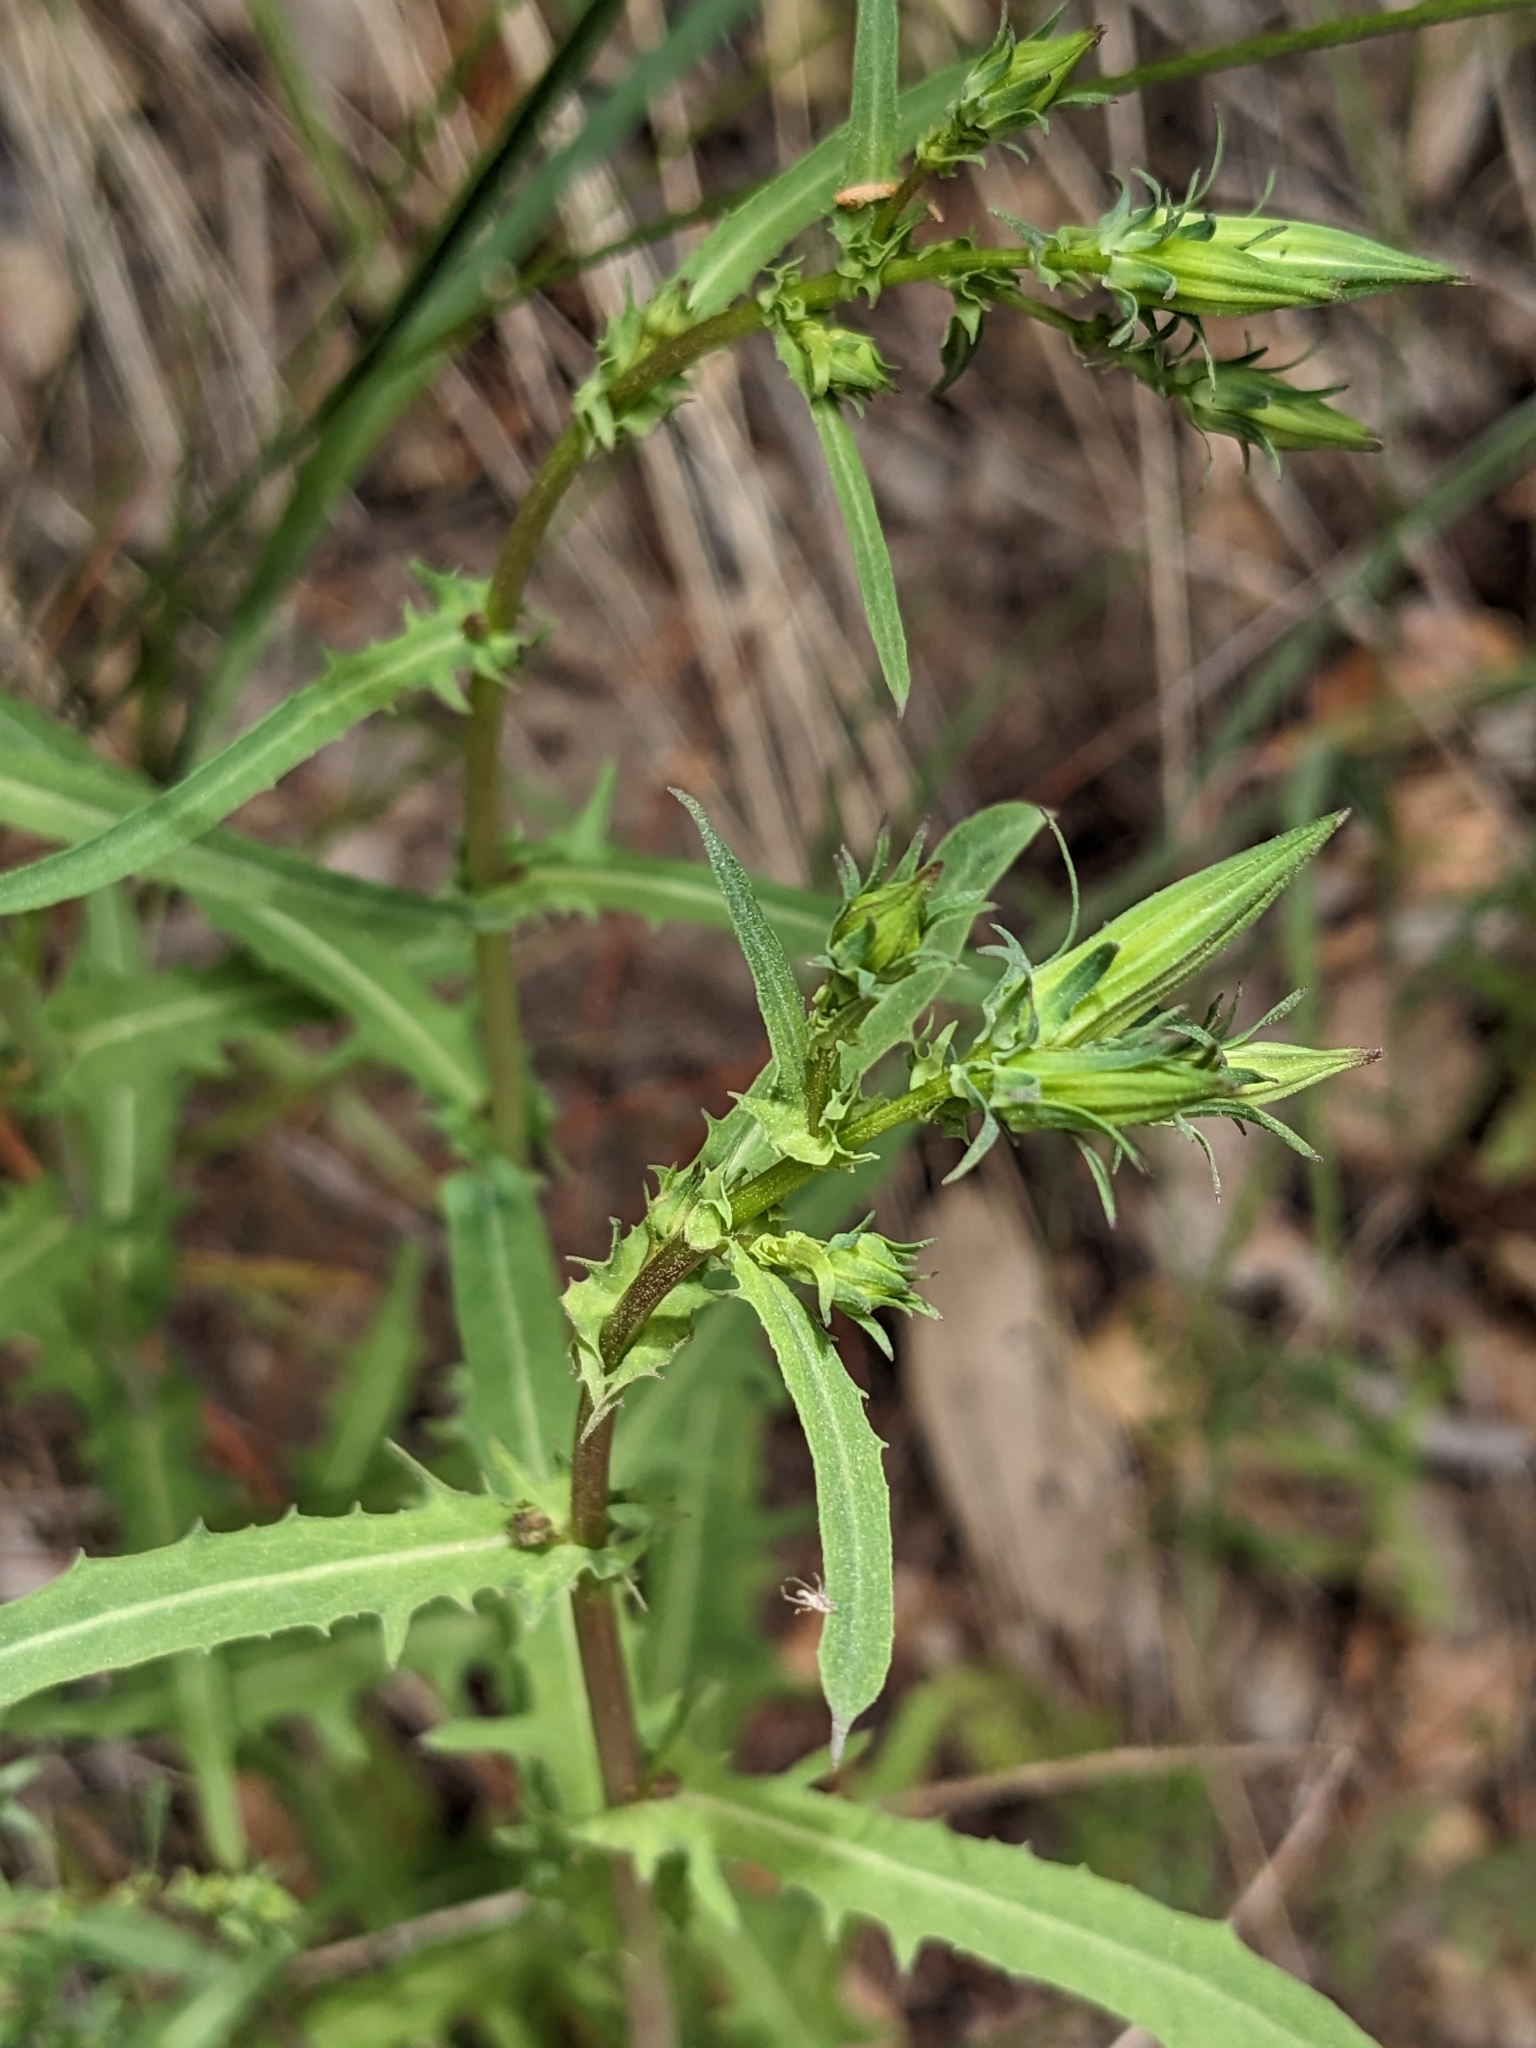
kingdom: Plantae
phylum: Tracheophyta
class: Magnoliopsida
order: Asterales
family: Asteraceae
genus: Rafinesquia
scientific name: Rafinesquia californica
